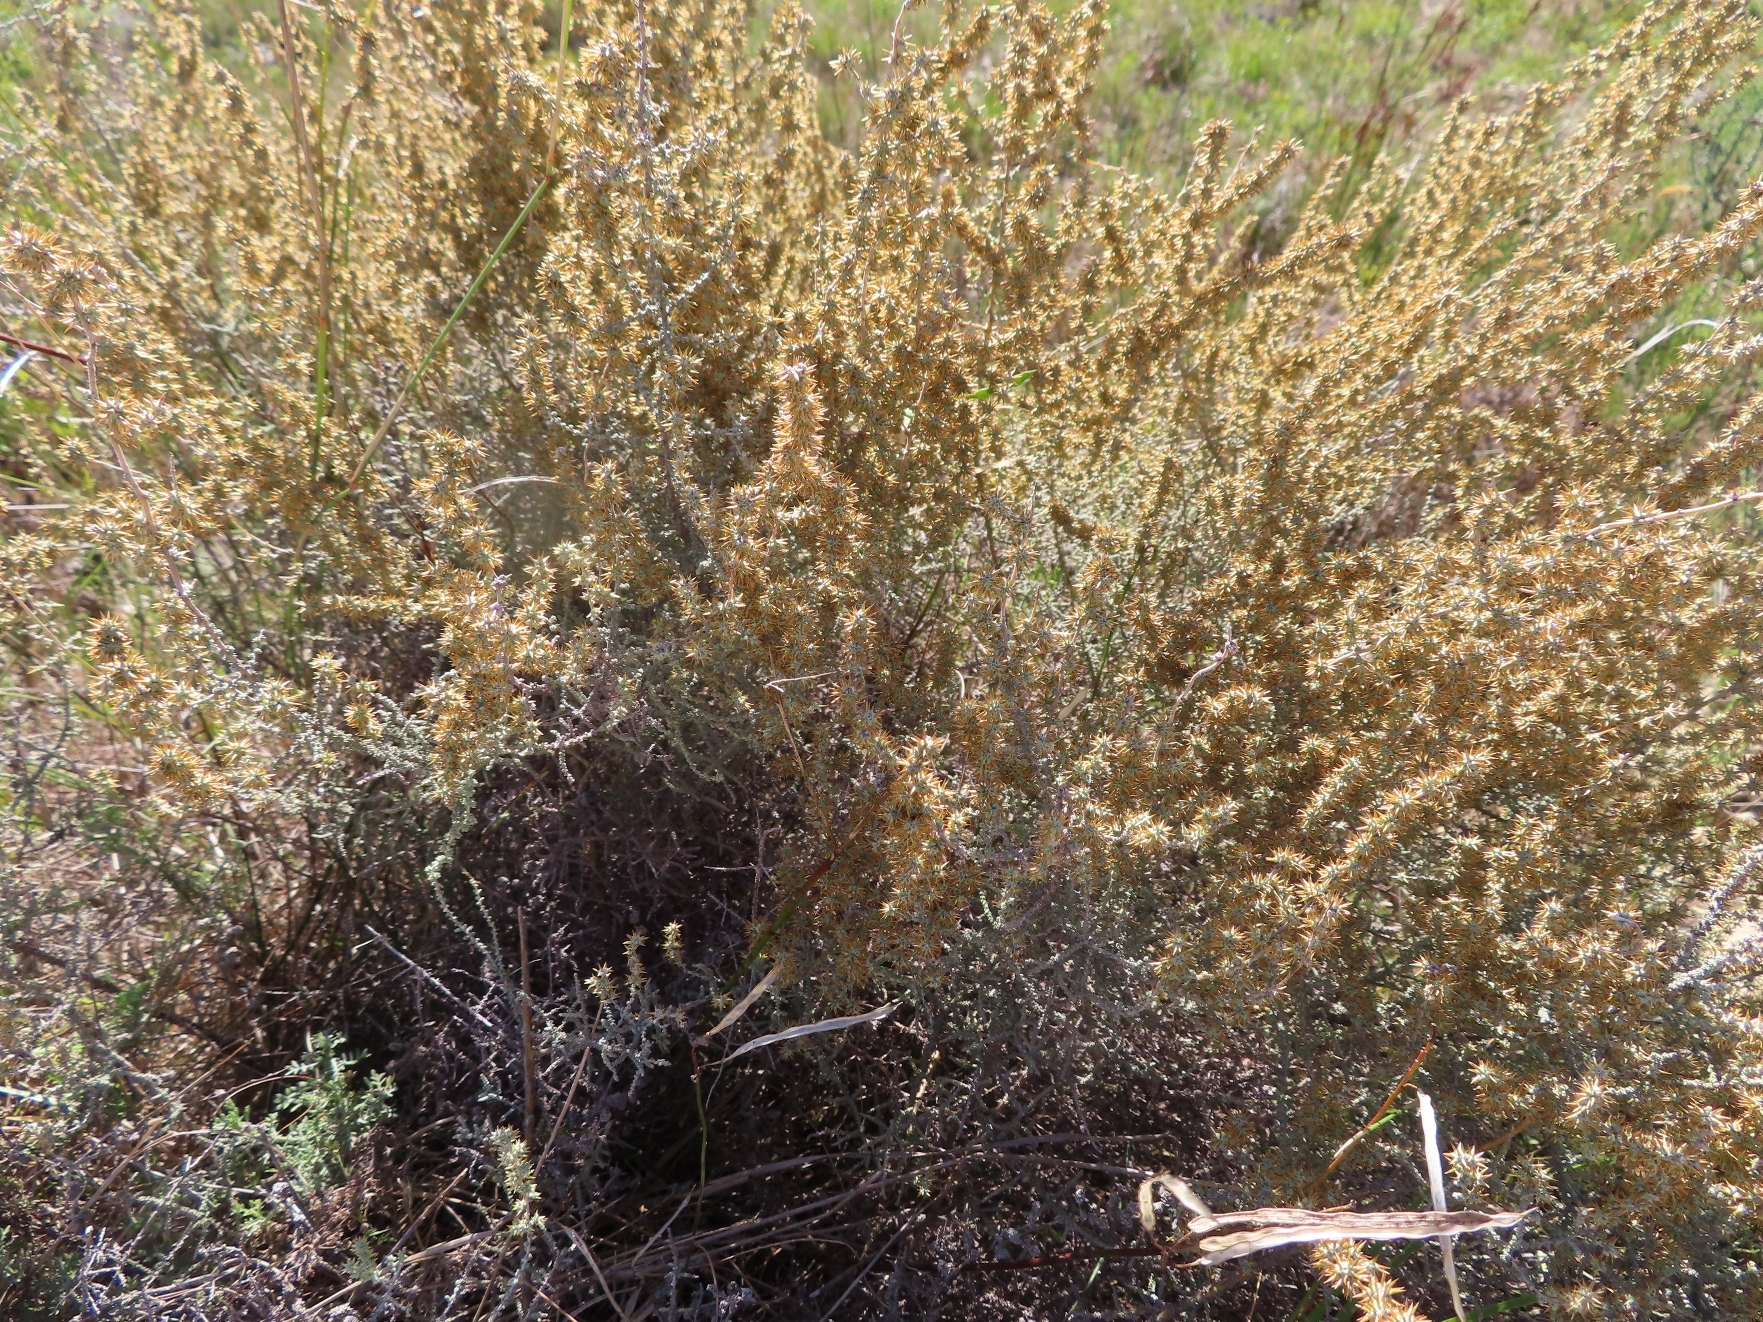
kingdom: Plantae
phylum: Tracheophyta
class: Magnoliopsida
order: Asterales
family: Asteraceae
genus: Seriphium
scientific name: Seriphium plumosum
